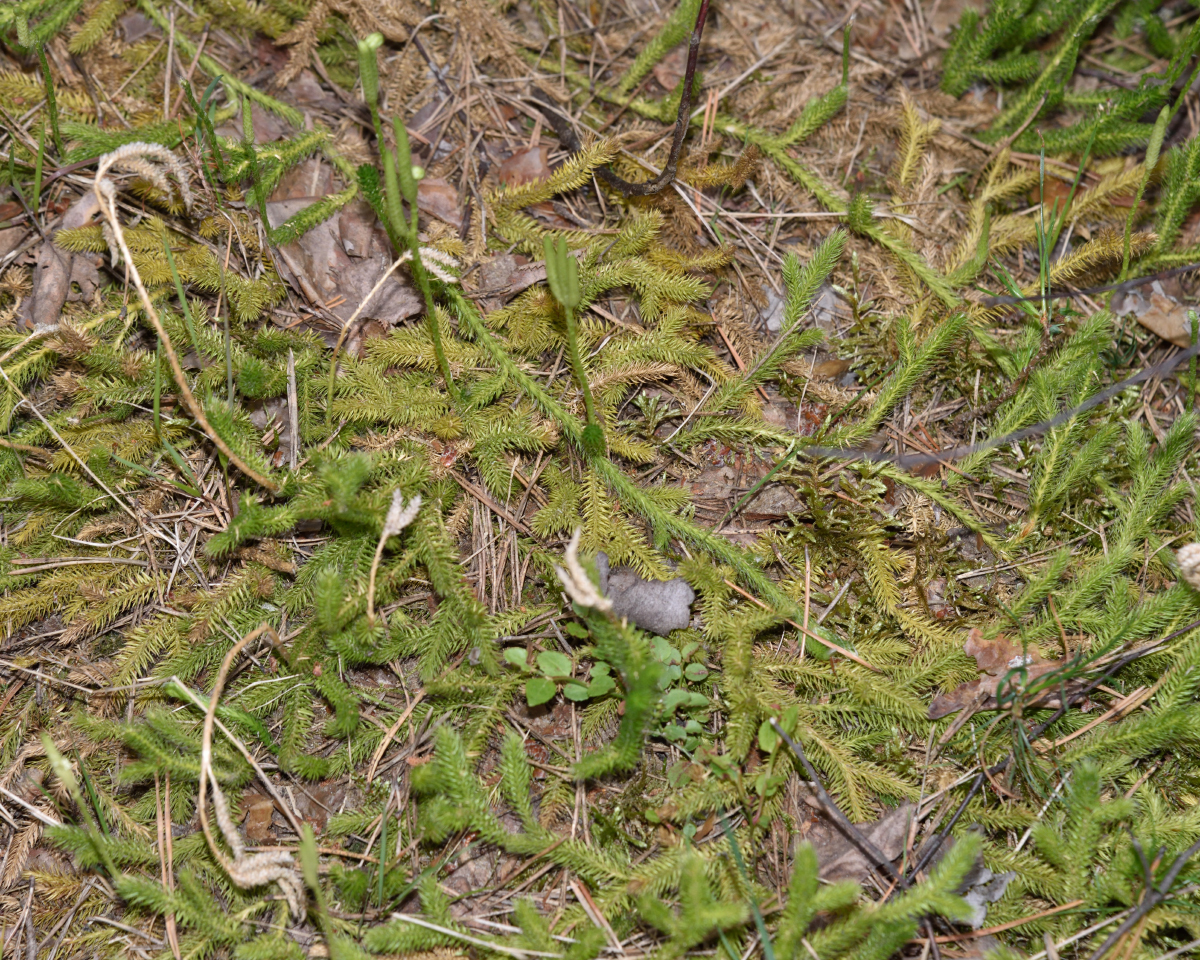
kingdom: Plantae
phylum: Tracheophyta
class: Lycopodiopsida
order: Lycopodiales
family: Lycopodiaceae
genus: Lycopodium
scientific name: Lycopodium clavatum
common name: Stag's-horn clubmoss
